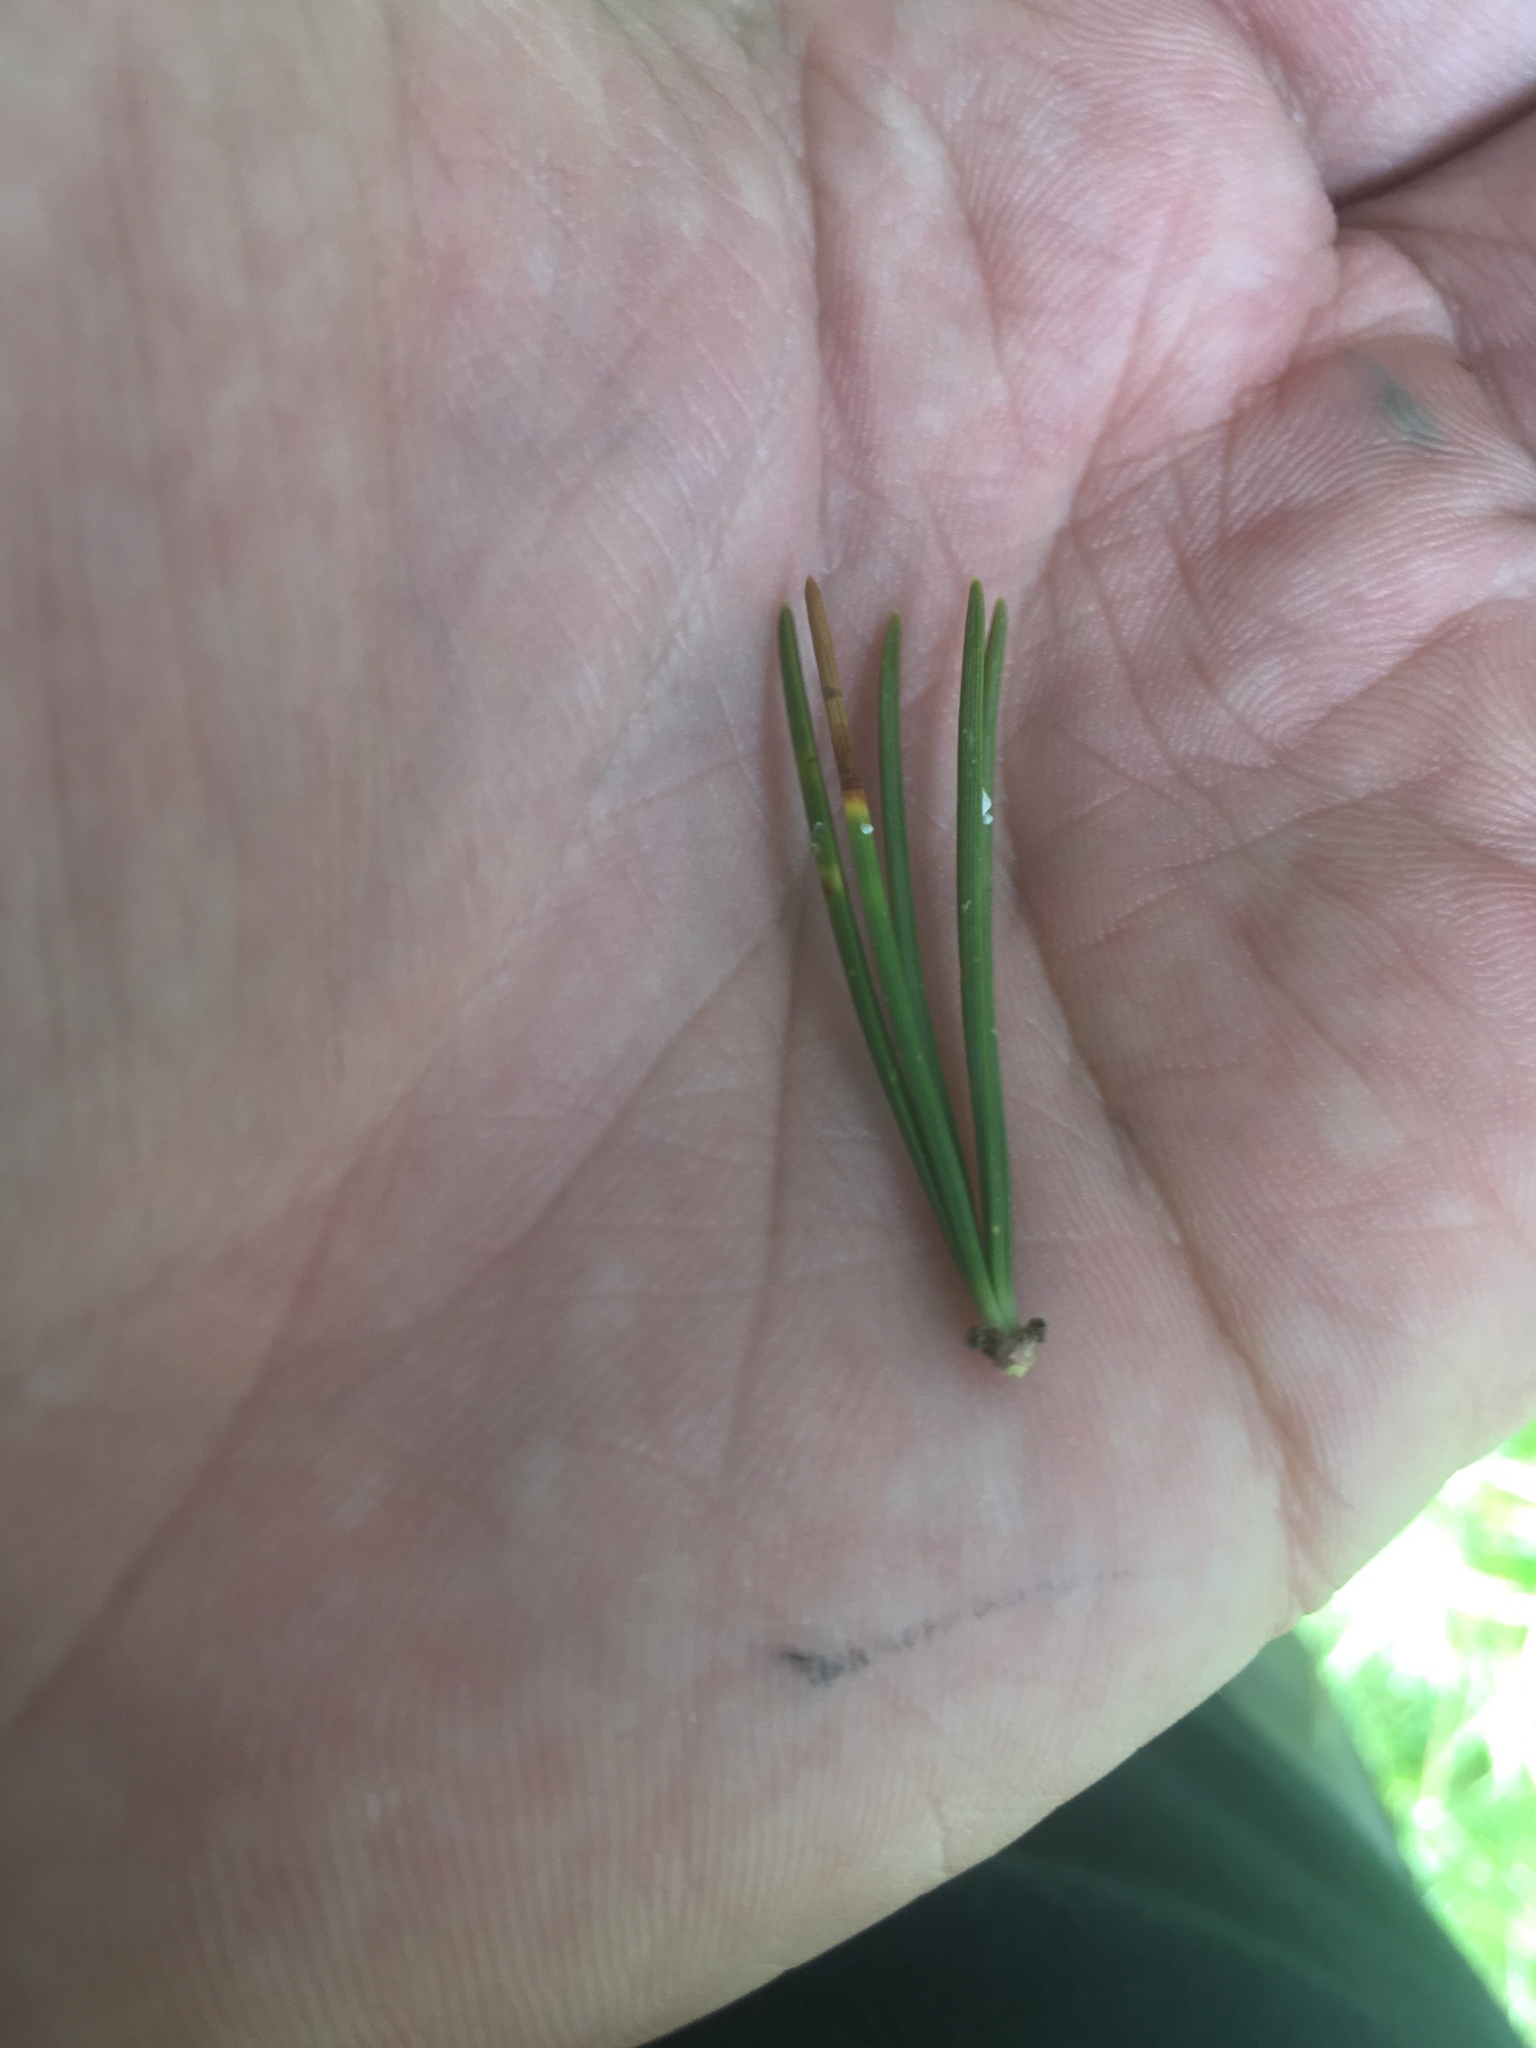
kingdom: Plantae
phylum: Tracheophyta
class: Pinopsida
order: Pinales
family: Pinaceae
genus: Pinus
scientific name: Pinus aristata
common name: Colorado bristlecone pine
